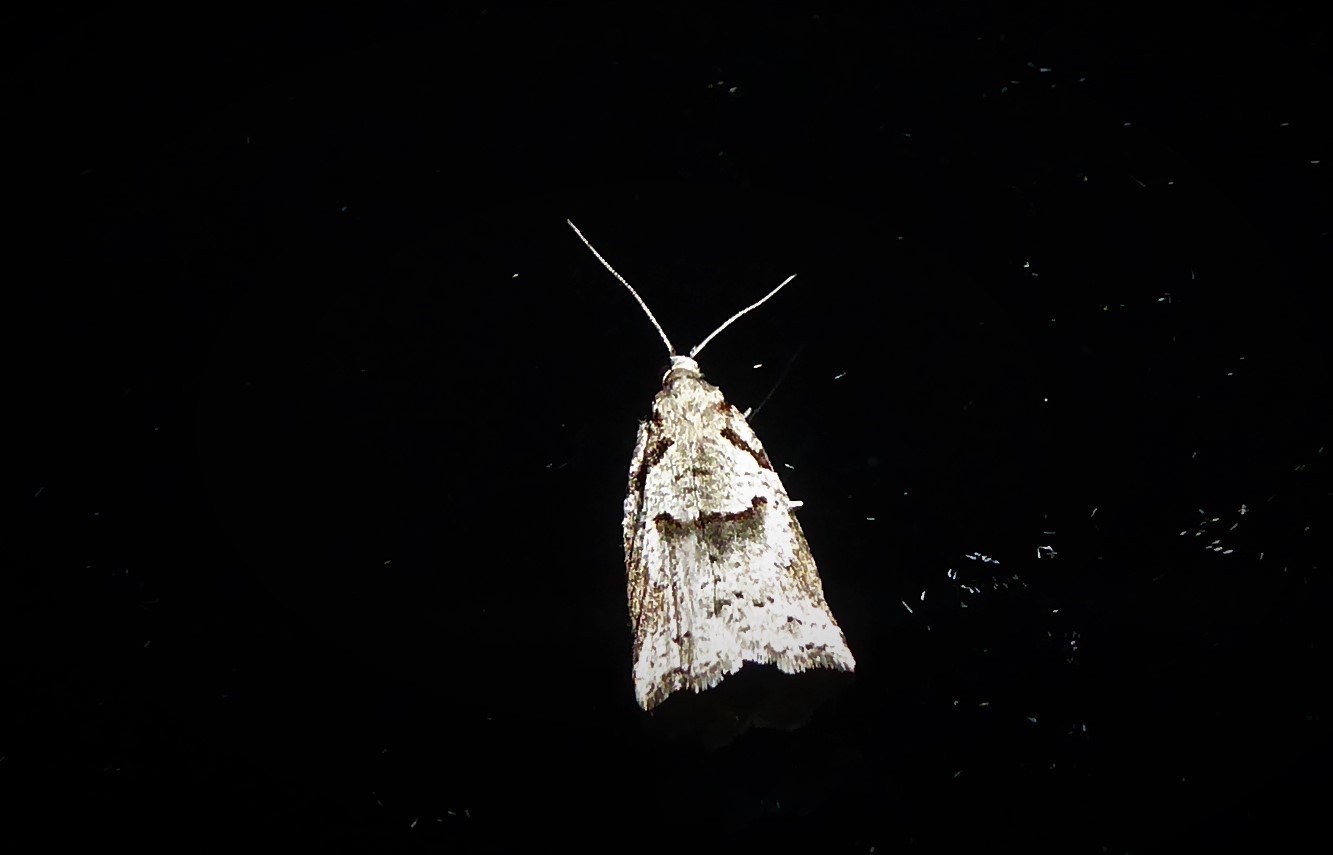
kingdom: Animalia
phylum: Arthropoda
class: Insecta
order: Lepidoptera
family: Tortricidae
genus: Harmologa
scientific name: Harmologa amplexana
